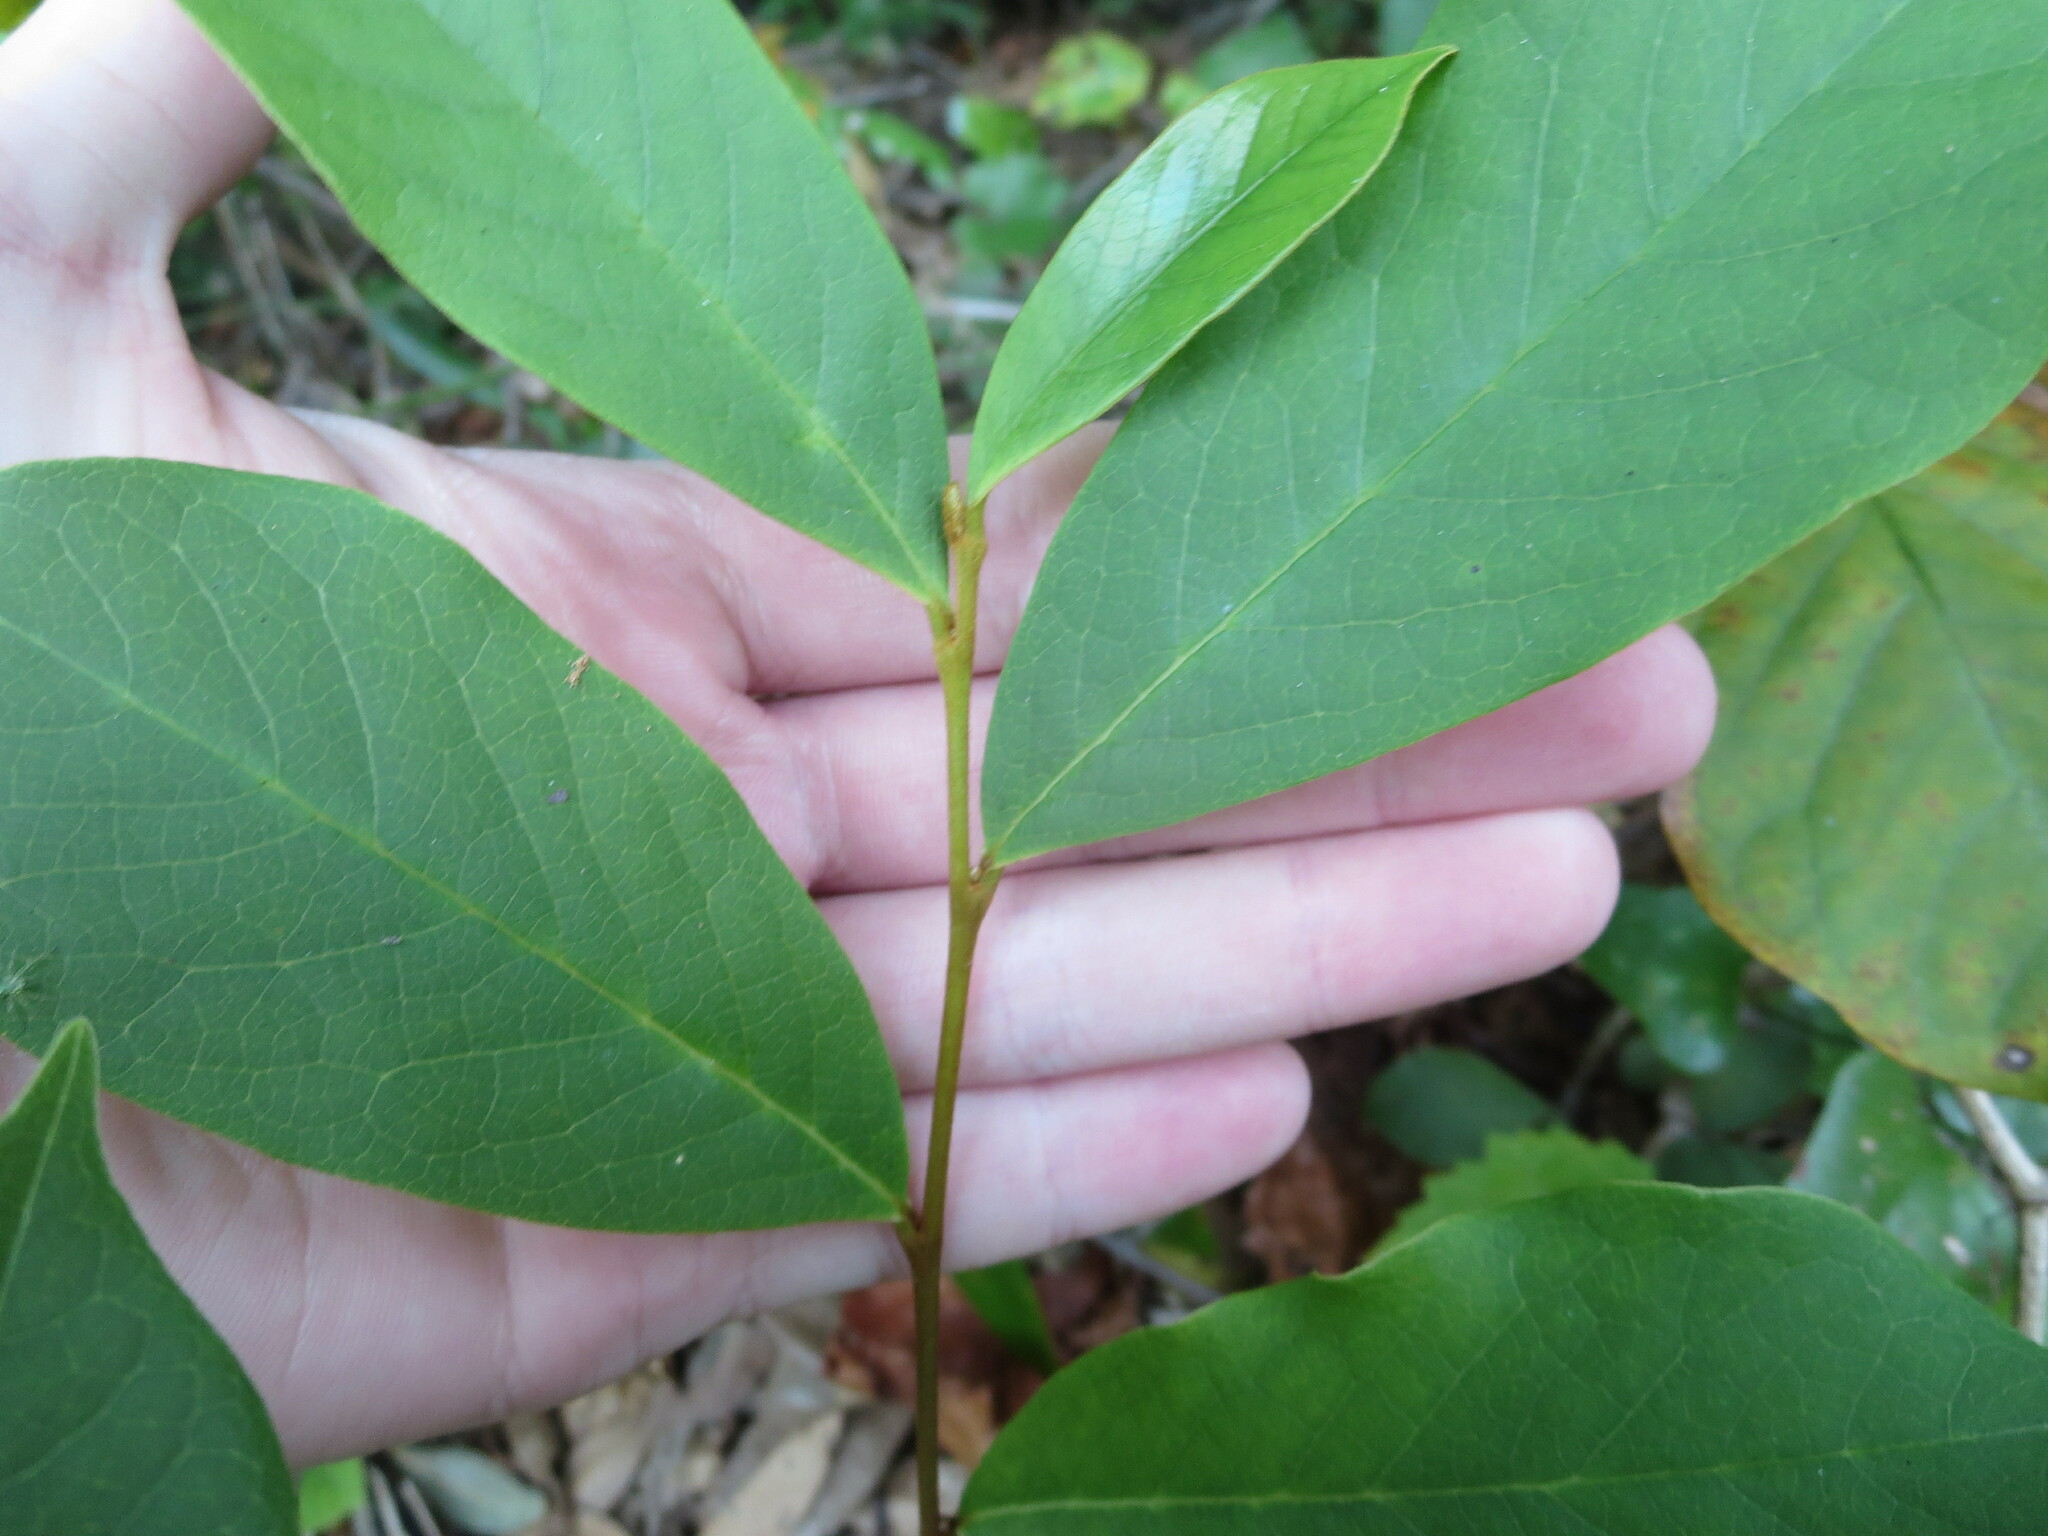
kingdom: Plantae
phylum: Tracheophyta
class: Magnoliopsida
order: Magnoliales
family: Annonaceae
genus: Asimina
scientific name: Asimina parviflora
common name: Dwarf pawpaw
